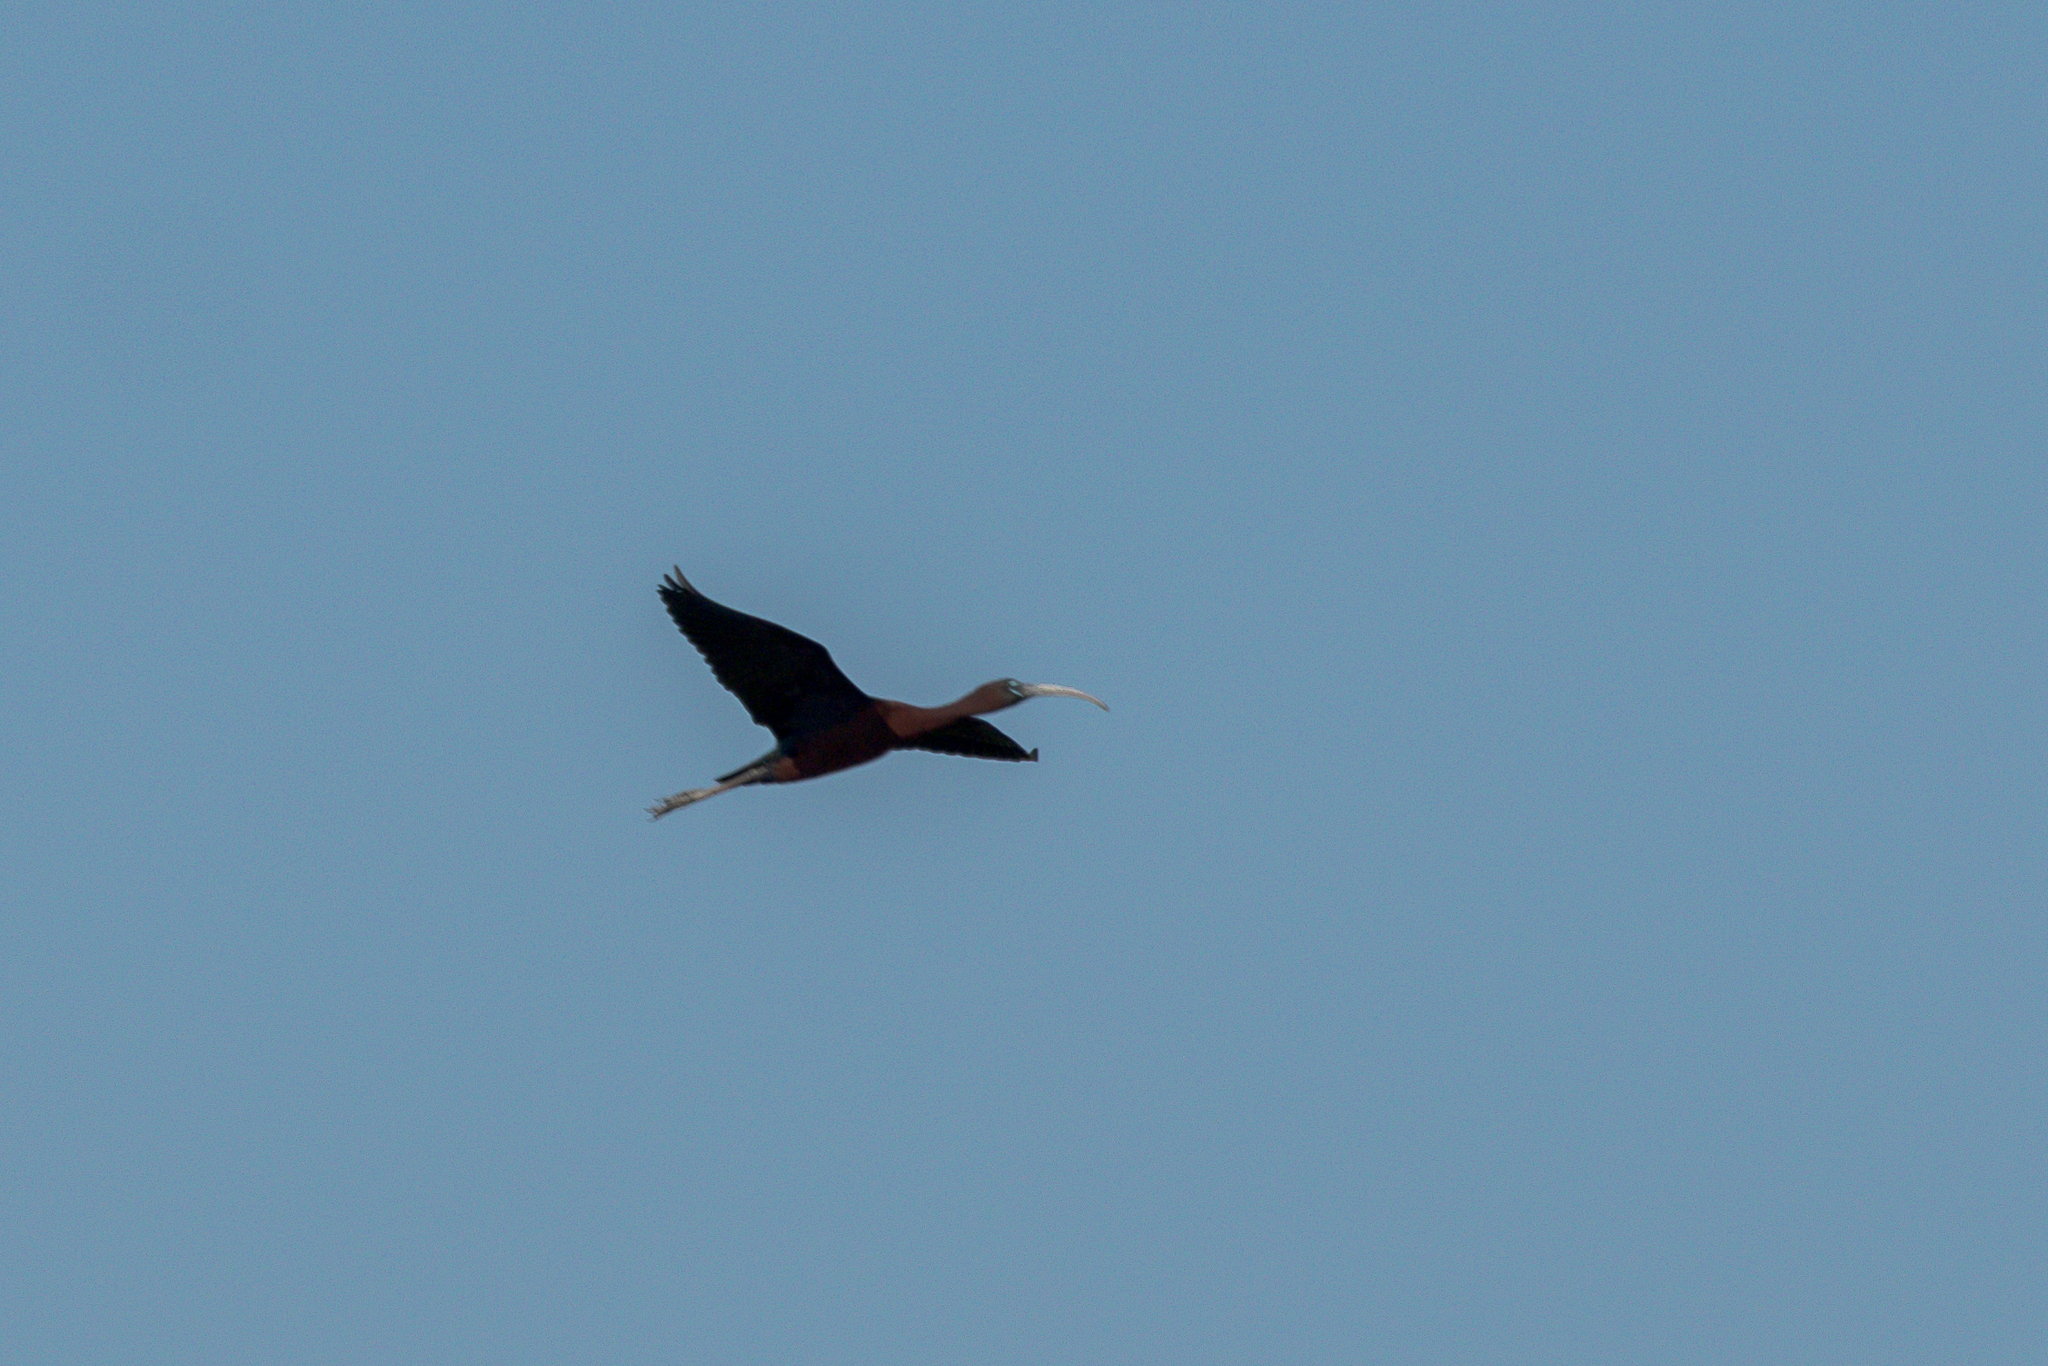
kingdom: Animalia
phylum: Chordata
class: Aves
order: Pelecaniformes
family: Threskiornithidae
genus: Plegadis
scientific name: Plegadis falcinellus
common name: Glossy ibis
